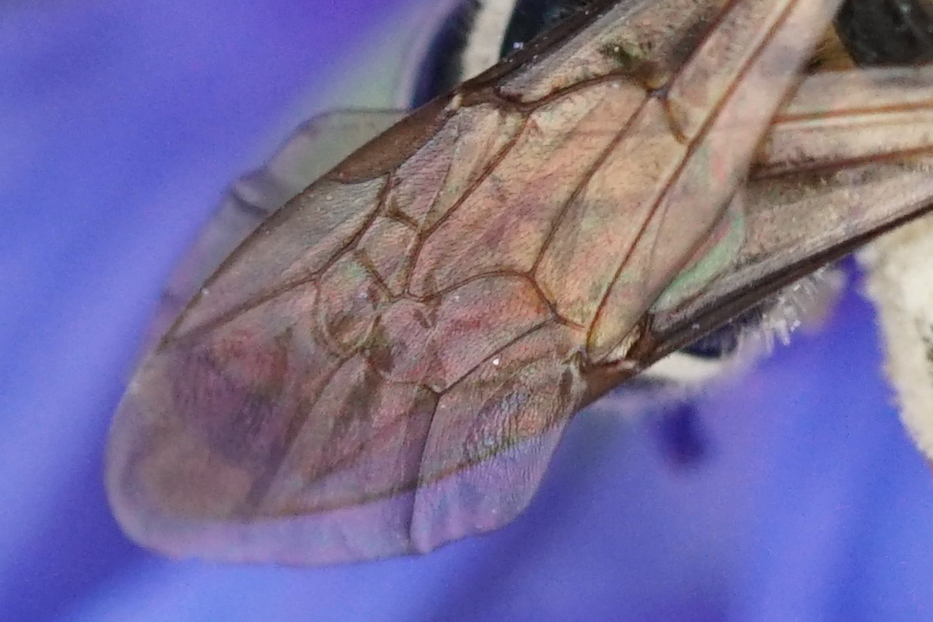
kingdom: Animalia
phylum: Arthropoda
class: Insecta
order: Hymenoptera
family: Halictidae
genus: Lasioglossum
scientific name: Lasioglossum
